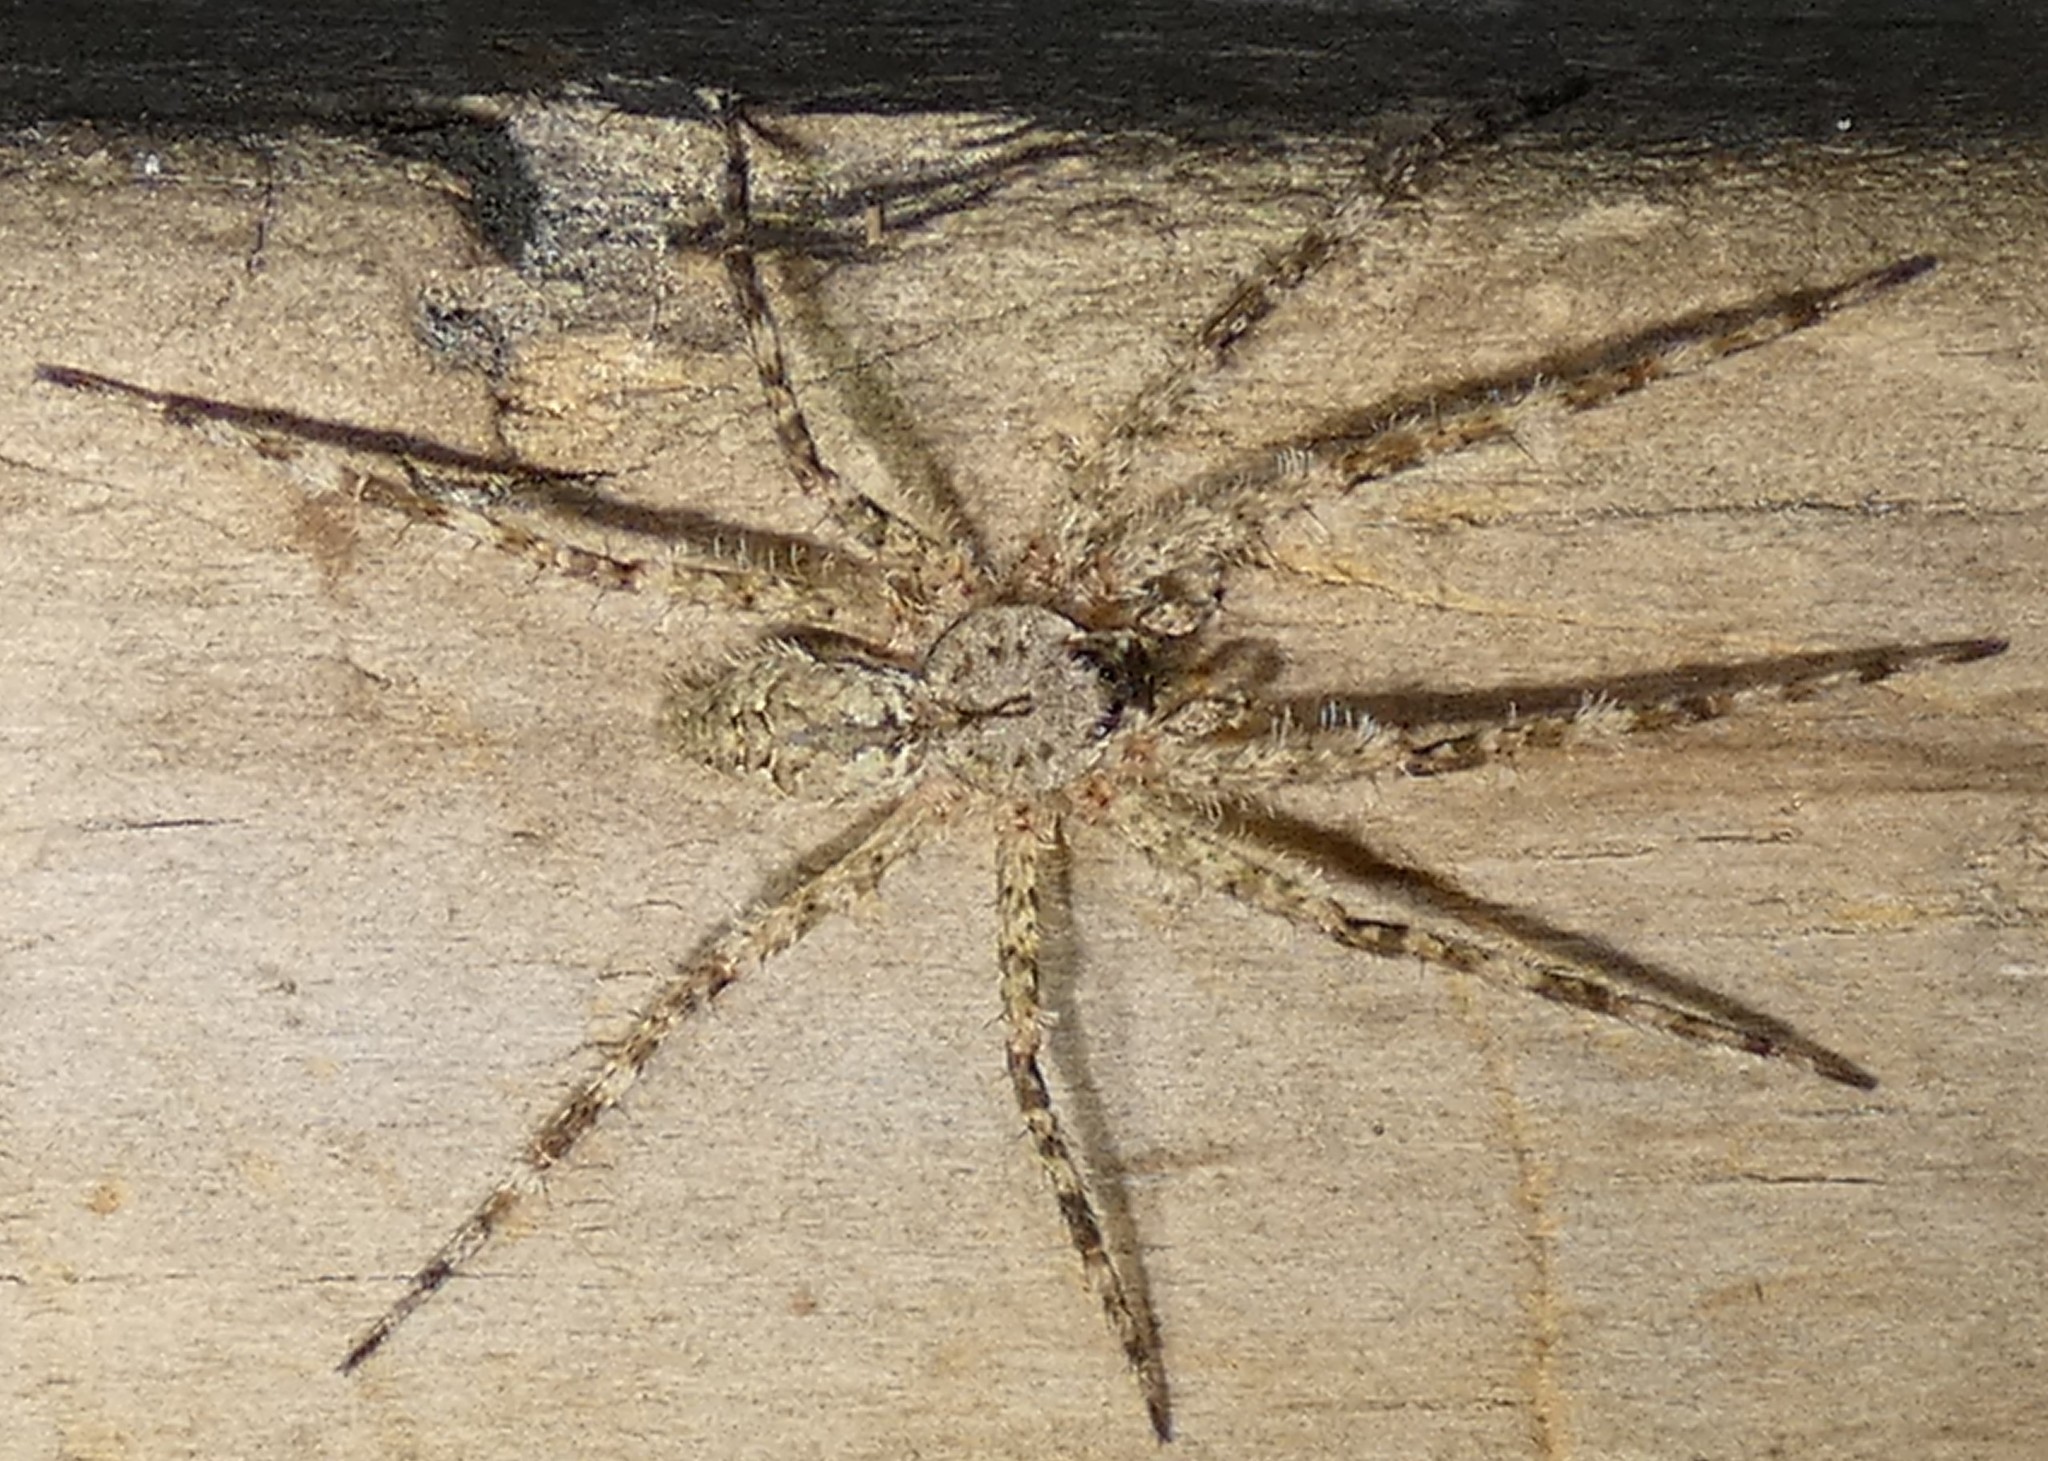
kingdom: Animalia
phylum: Arthropoda
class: Arachnida
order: Araneae
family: Pisauridae
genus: Dolomedes
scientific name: Dolomedes albineus
